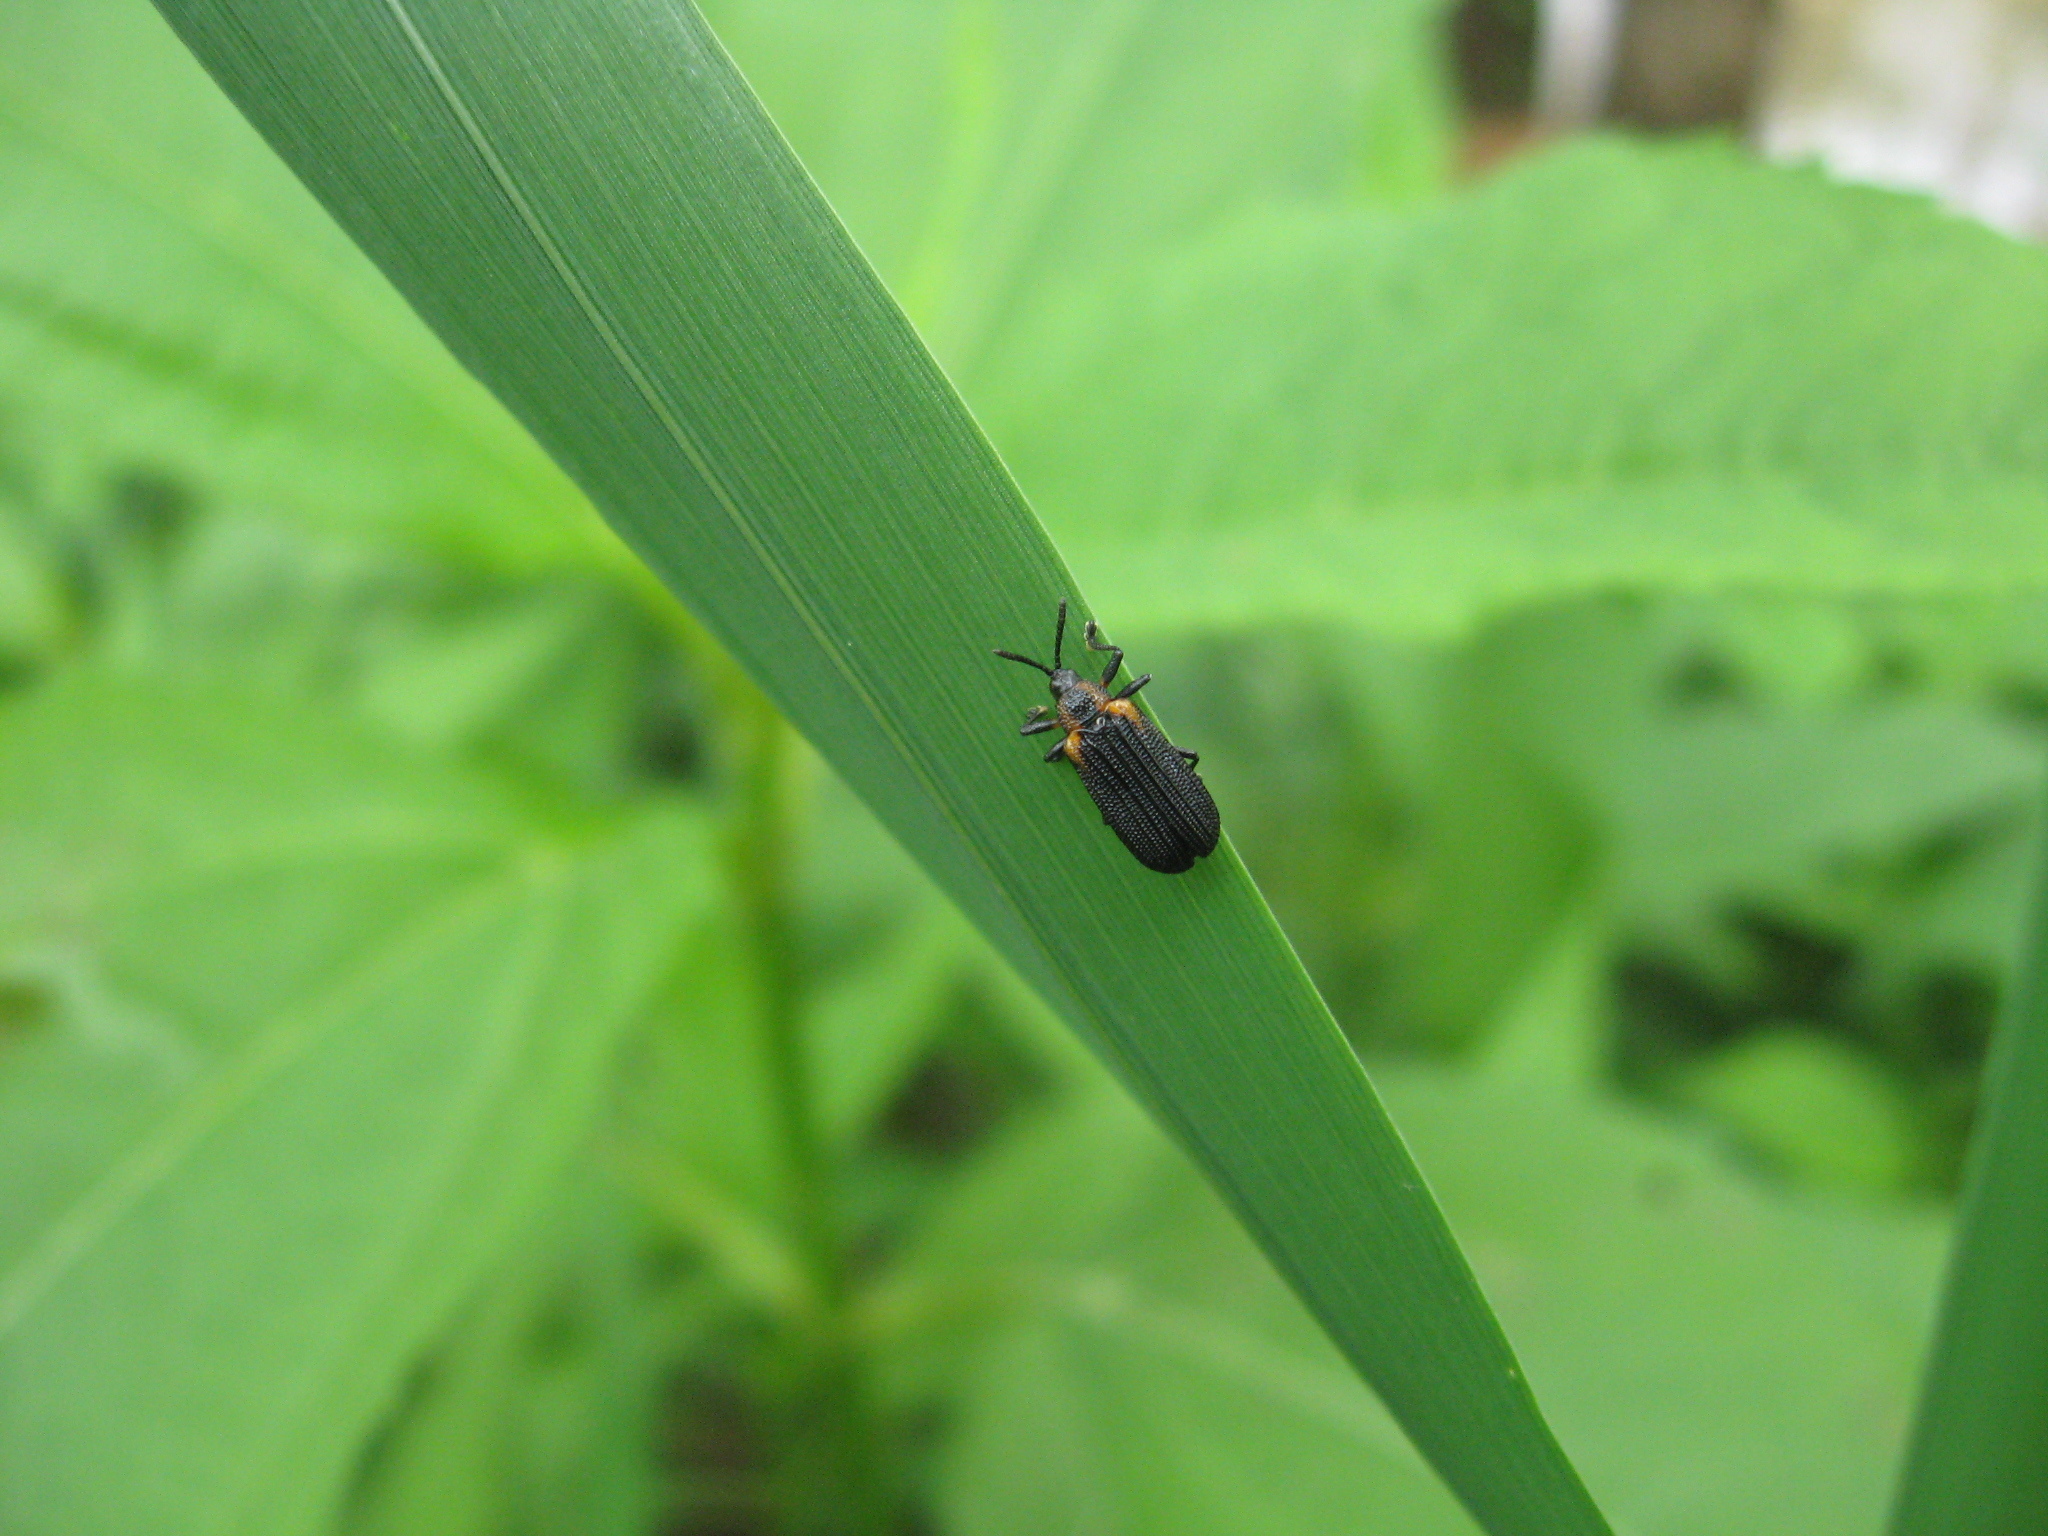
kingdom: Animalia
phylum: Arthropoda
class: Insecta
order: Coleoptera
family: Chrysomelidae
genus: Odontota
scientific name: Odontota scapularis
